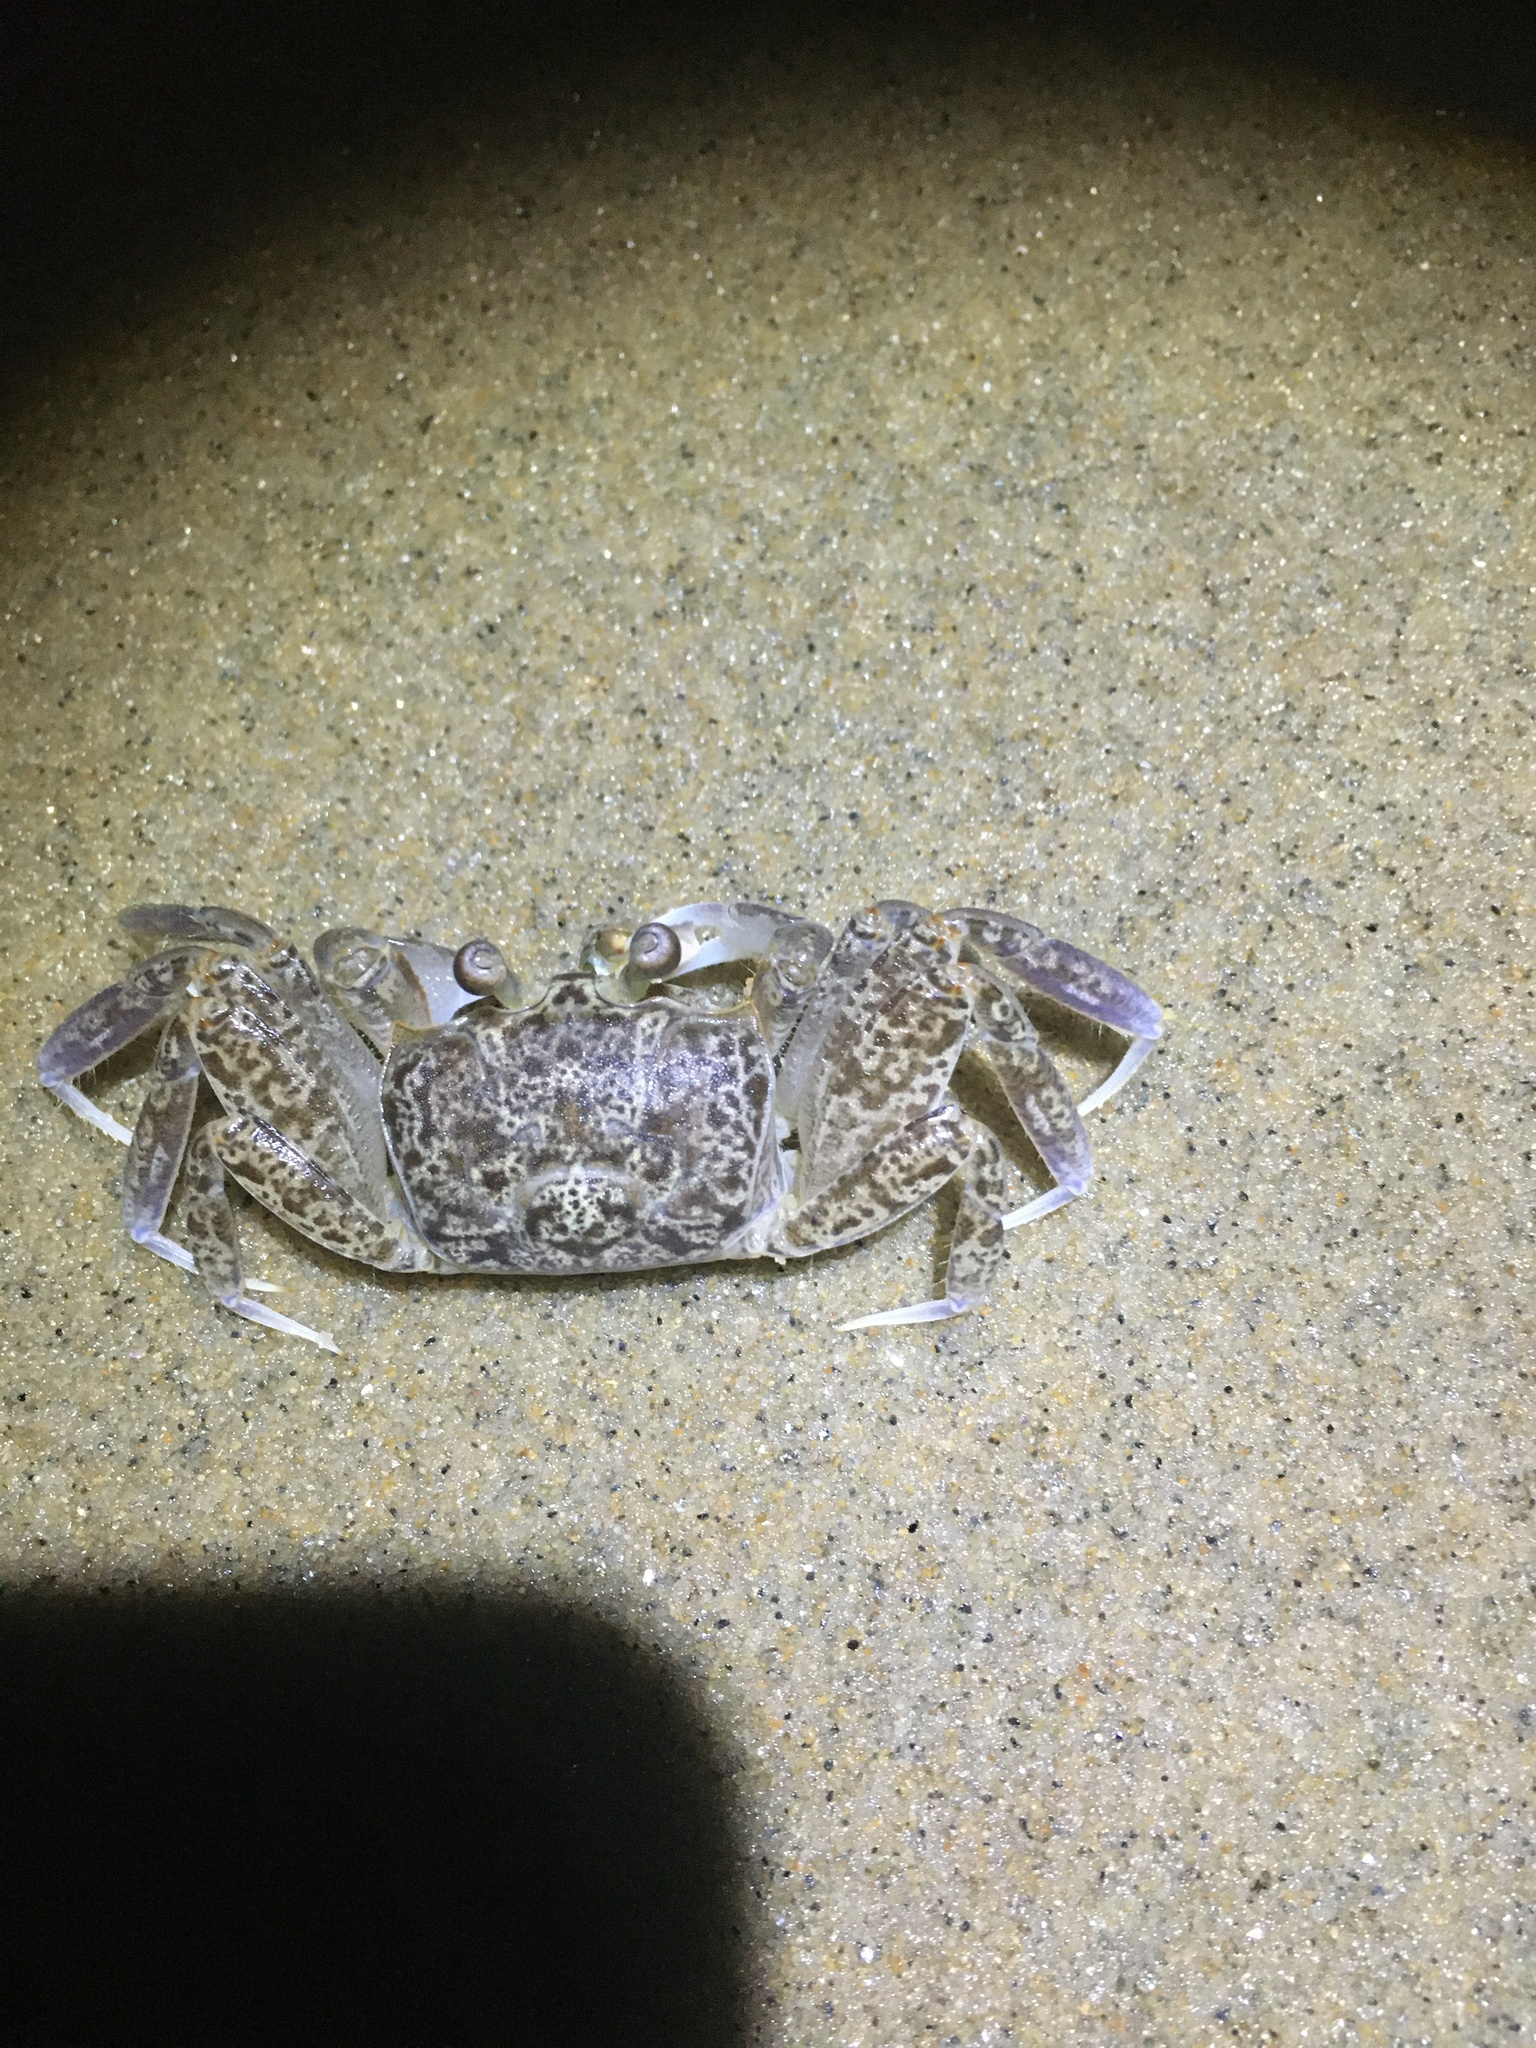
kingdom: Animalia
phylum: Arthropoda
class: Malacostraca
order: Decapoda
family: Ocypodidae
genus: Ocypode
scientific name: Ocypode quadrata
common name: Ghost crab
